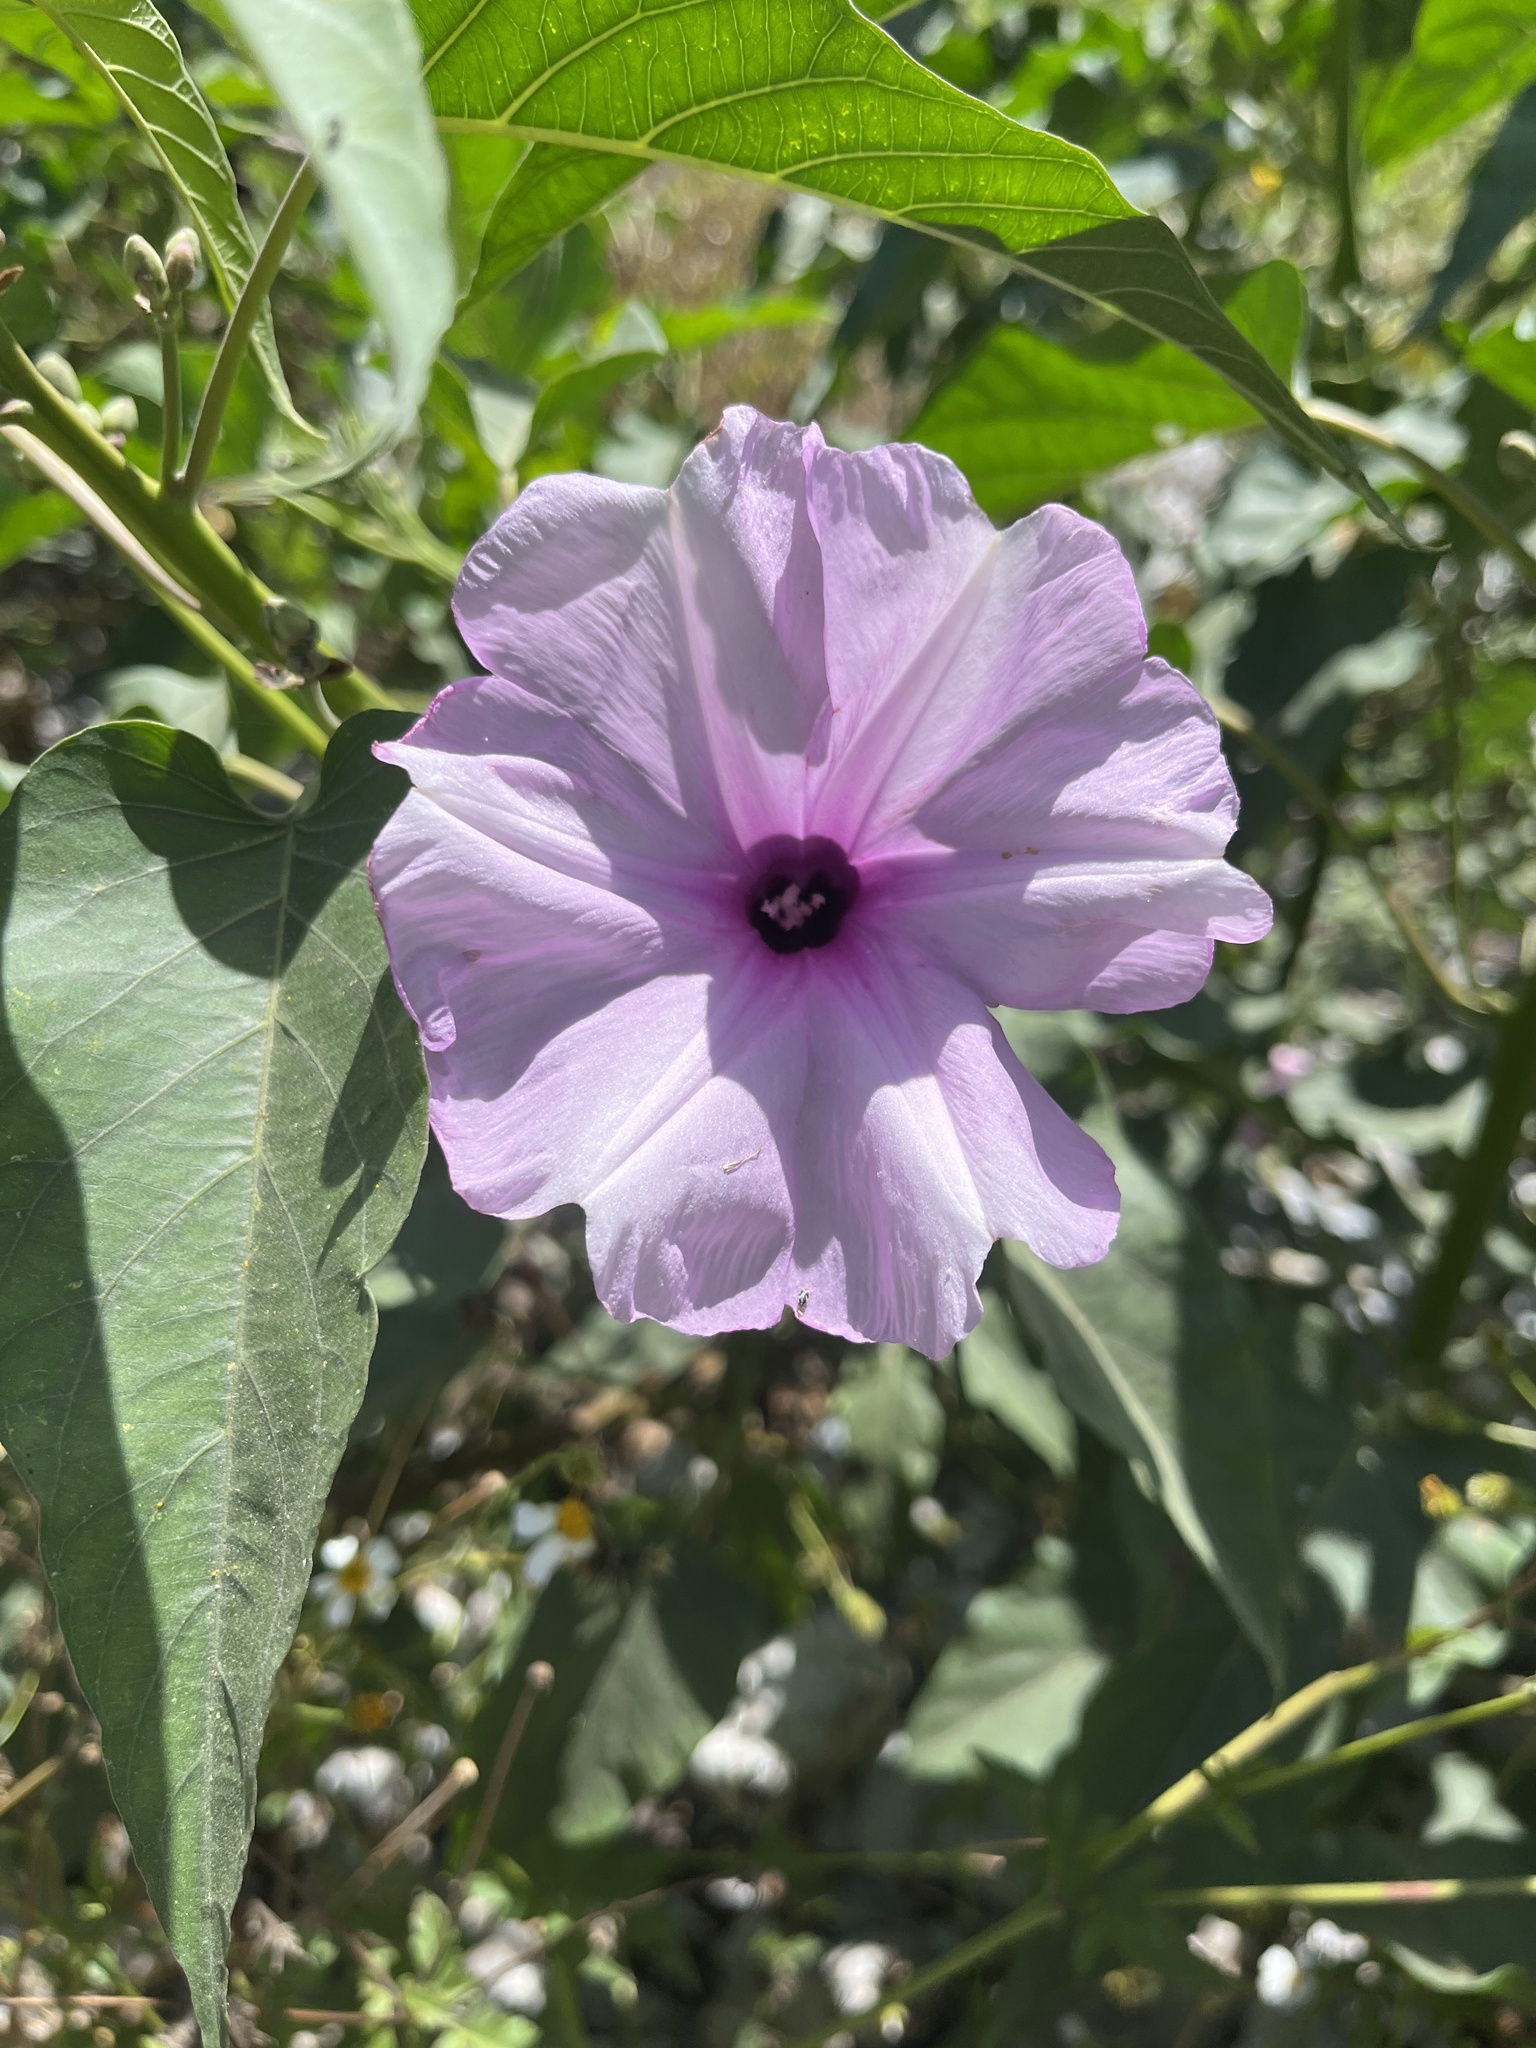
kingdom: Plantae
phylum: Tracheophyta
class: Magnoliopsida
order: Solanales
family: Convolvulaceae
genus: Ipomoea
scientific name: Ipomoea carnea
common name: Morning-glory
